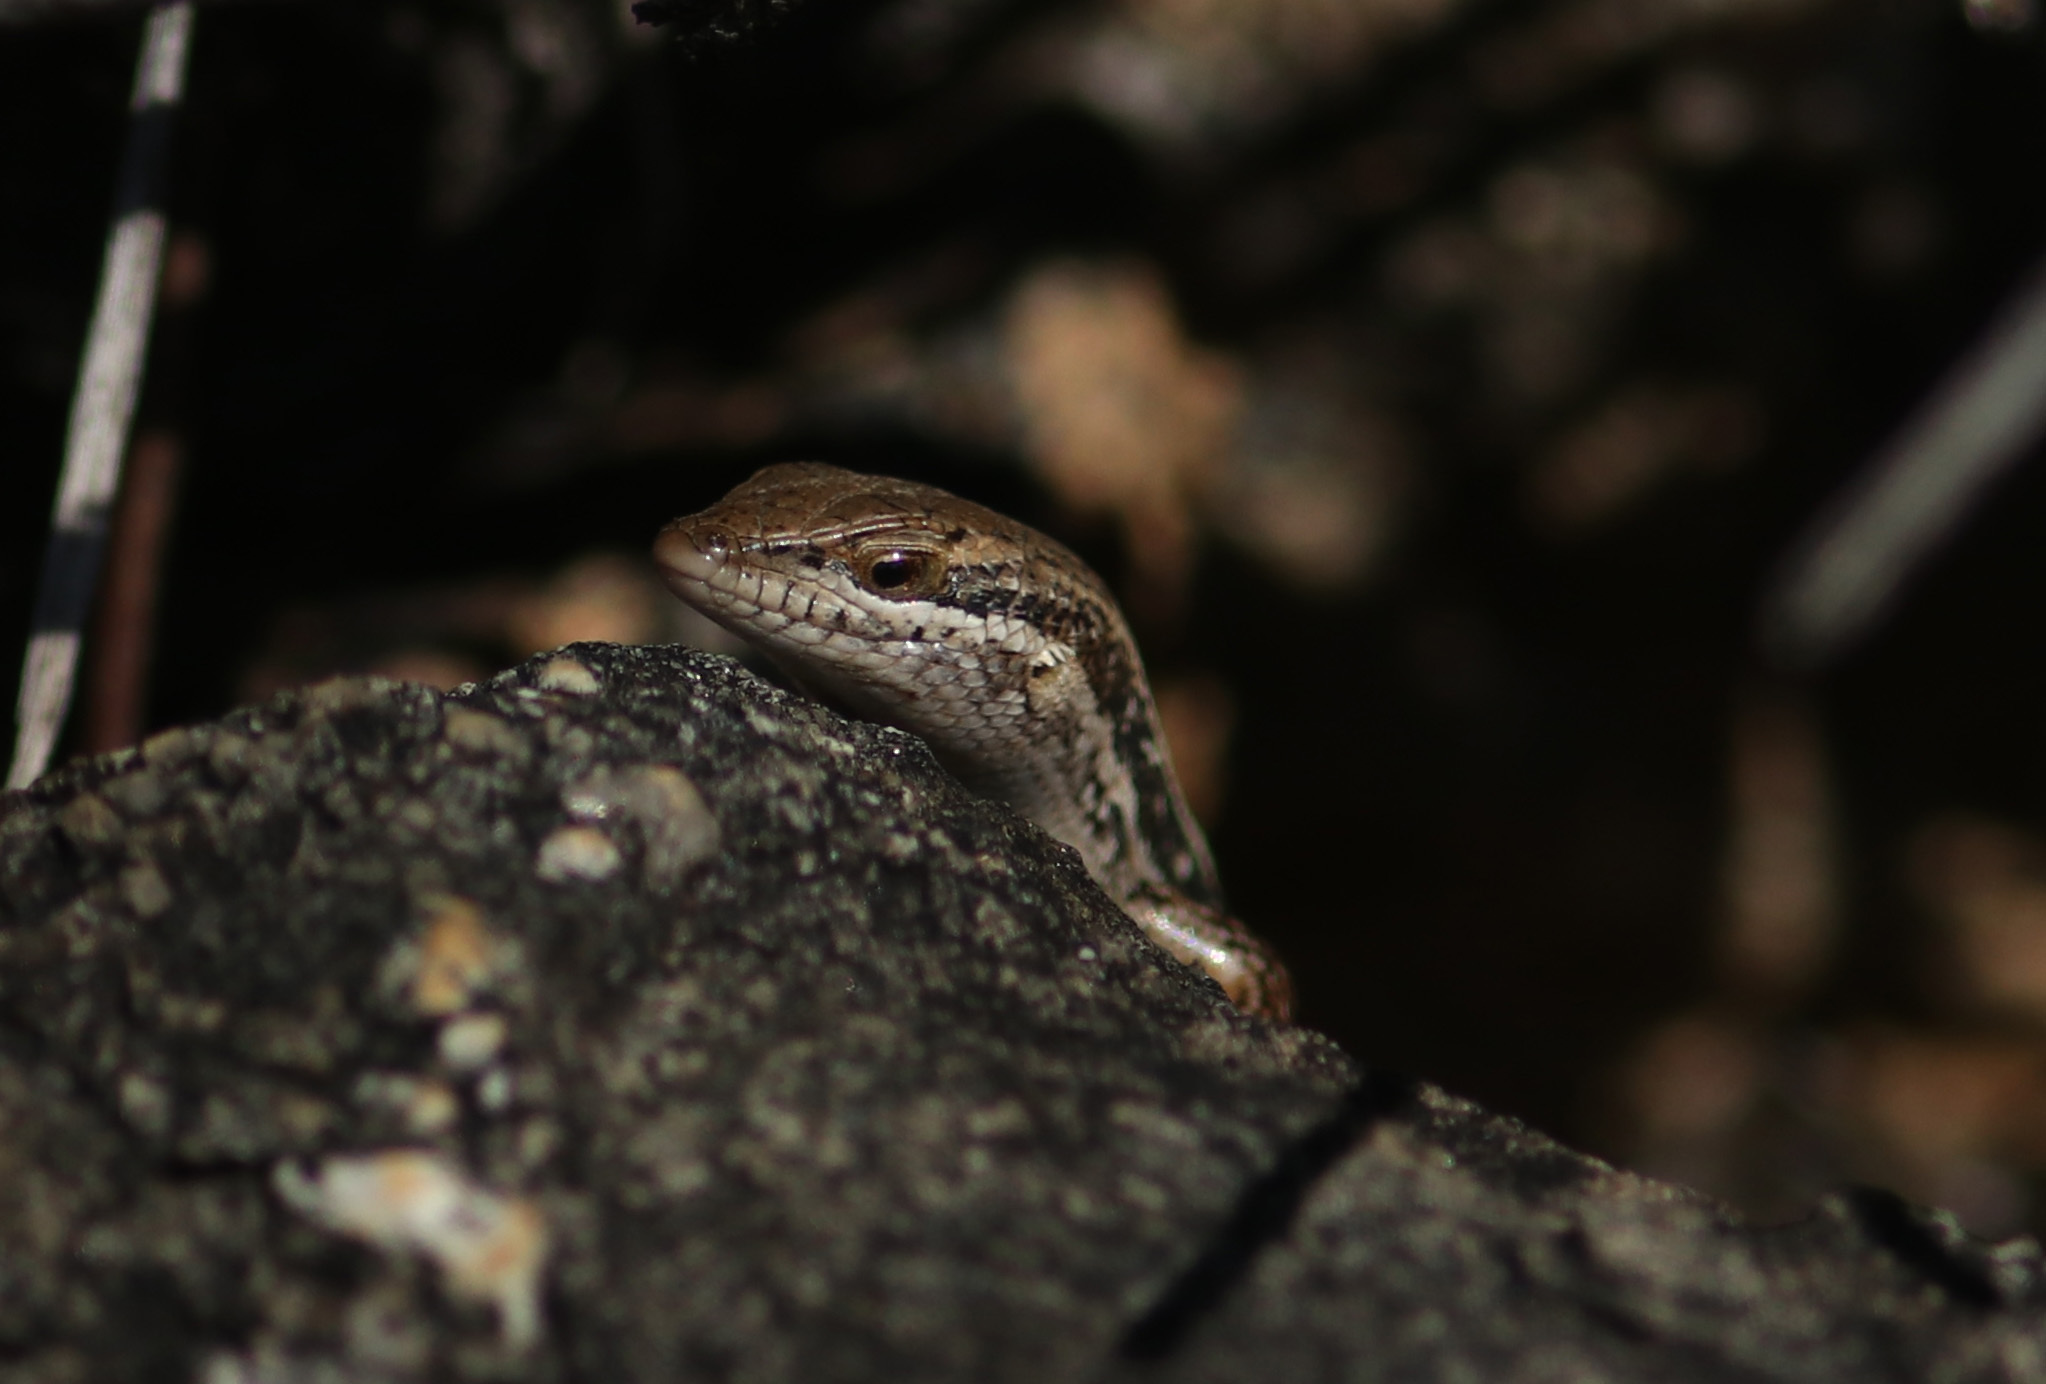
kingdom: Animalia
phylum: Chordata
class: Squamata
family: Scincidae
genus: Trachylepis
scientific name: Trachylepis variegata
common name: Variegated skink
